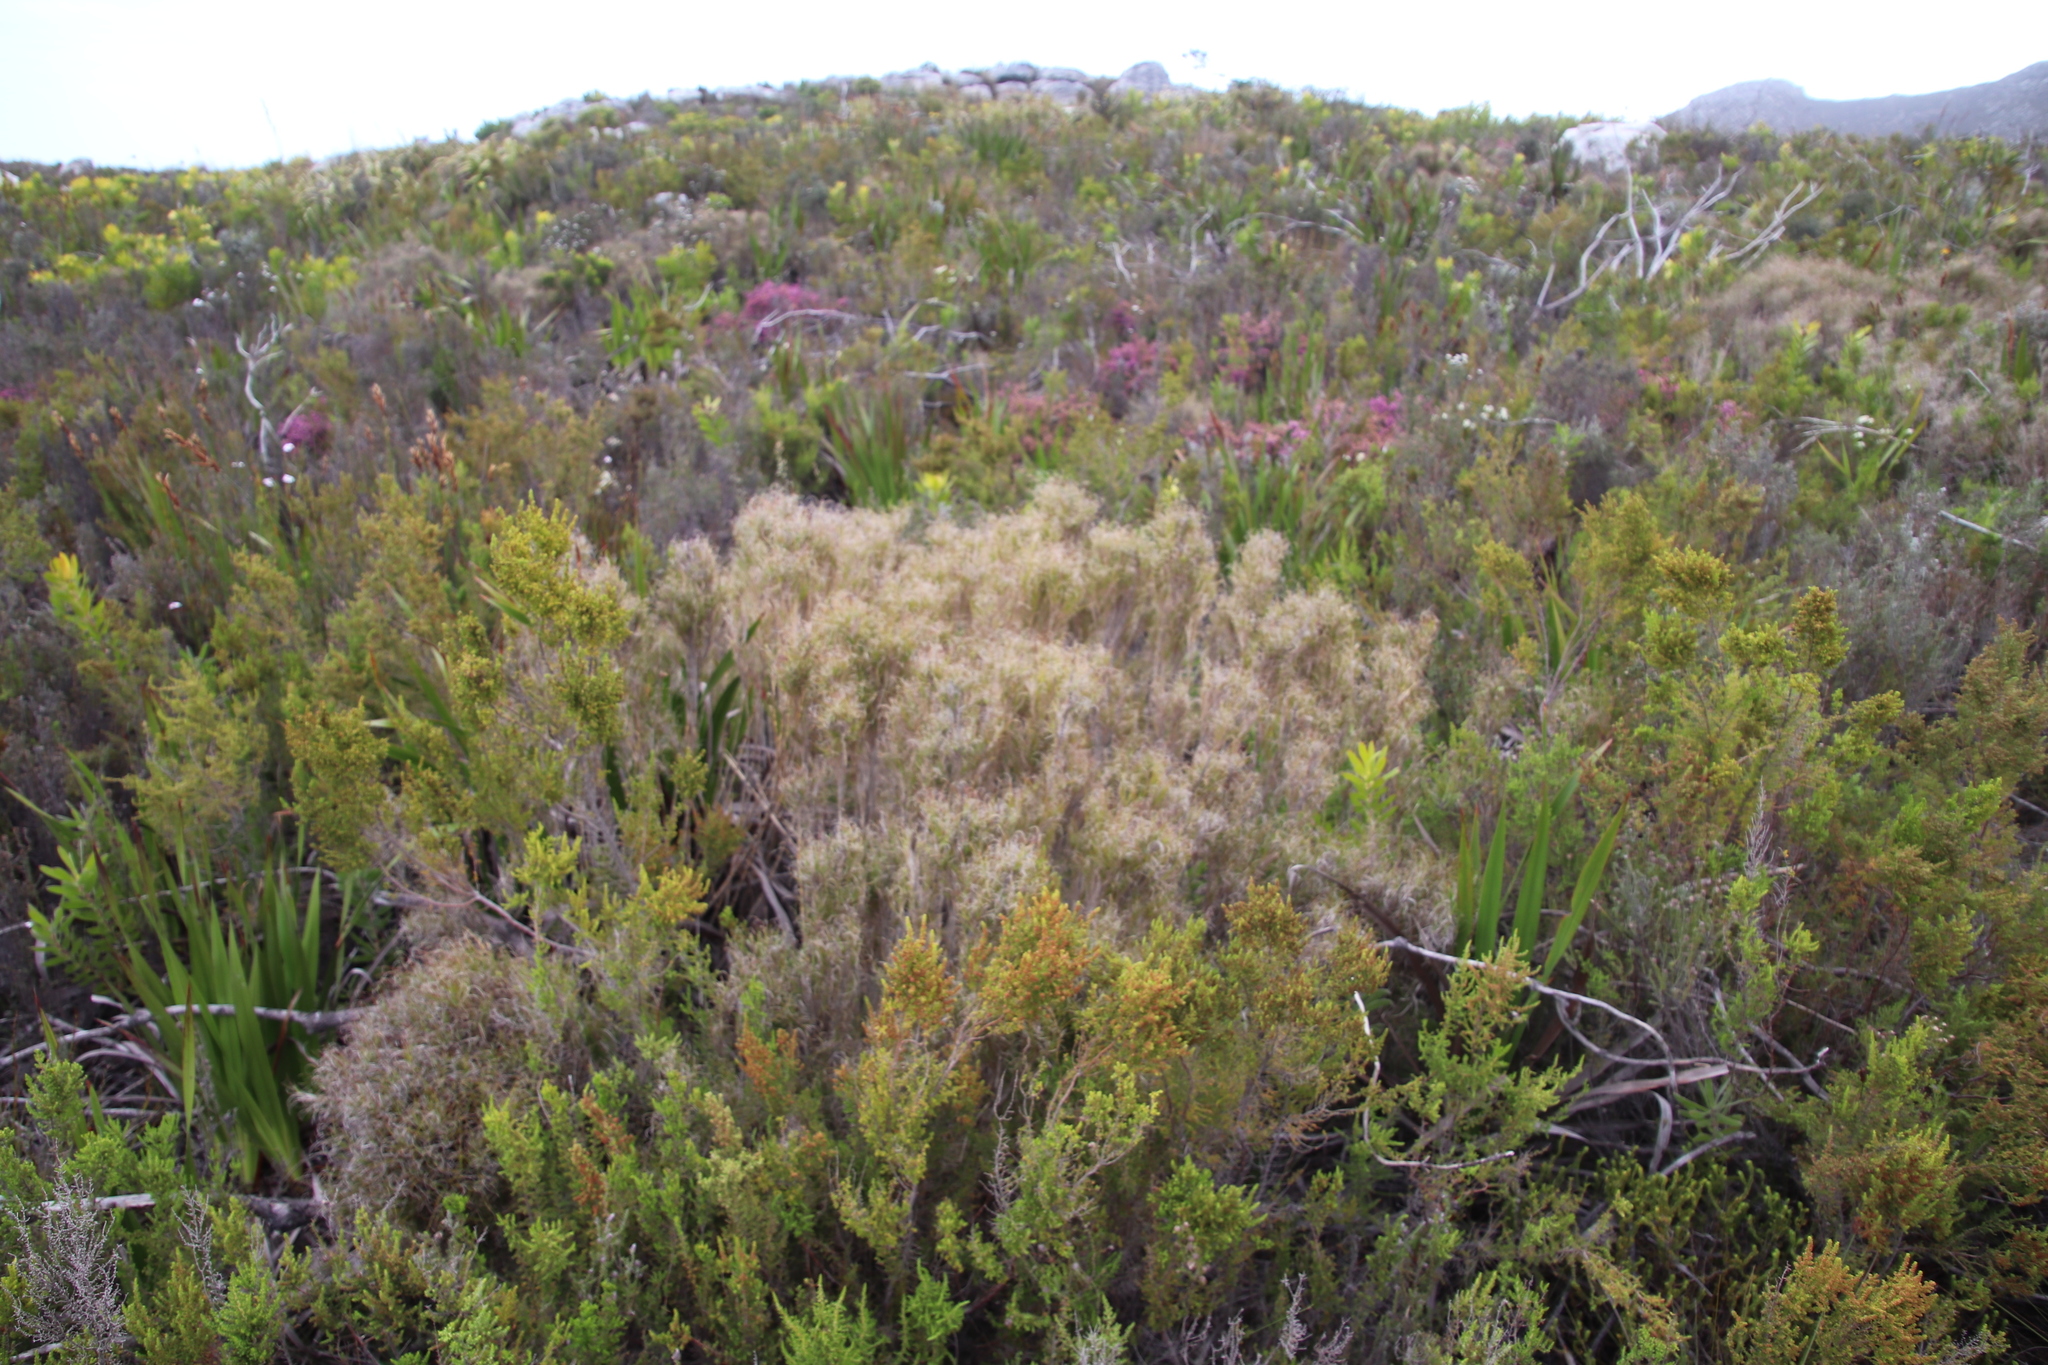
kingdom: Plantae
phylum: Tracheophyta
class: Liliopsida
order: Poales
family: Poaceae
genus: Pseudopentameris
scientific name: Pseudopentameris macrantha
